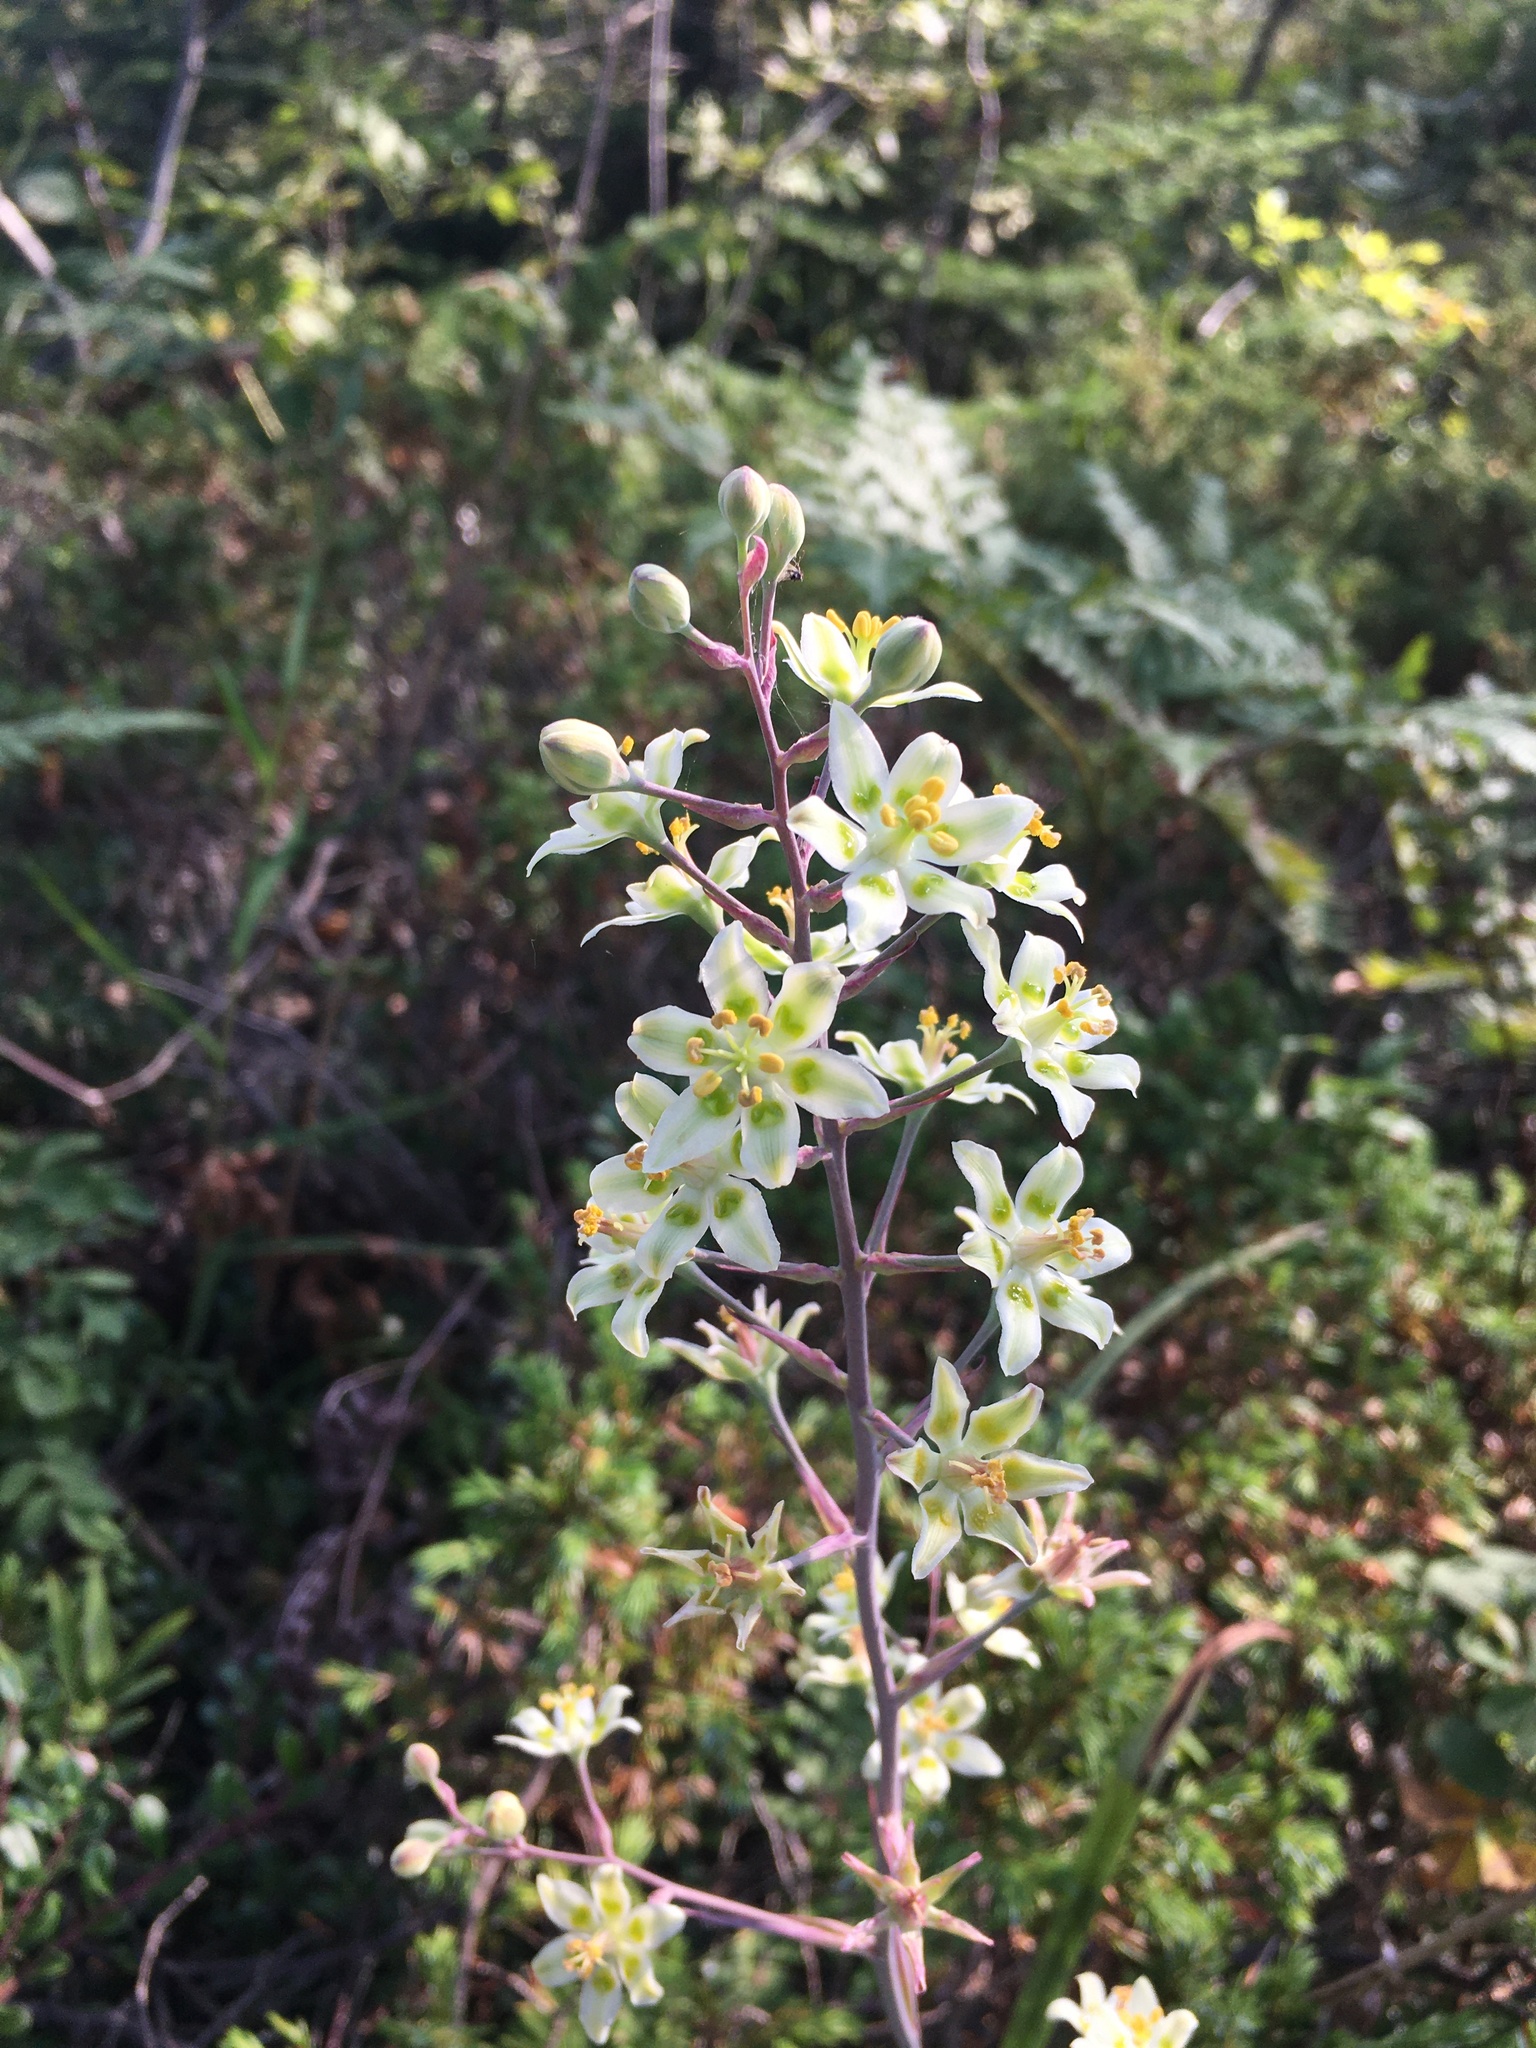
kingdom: Plantae
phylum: Tracheophyta
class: Liliopsida
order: Liliales
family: Melanthiaceae
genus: Anticlea
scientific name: Anticlea elegans
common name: Mountain death camas
